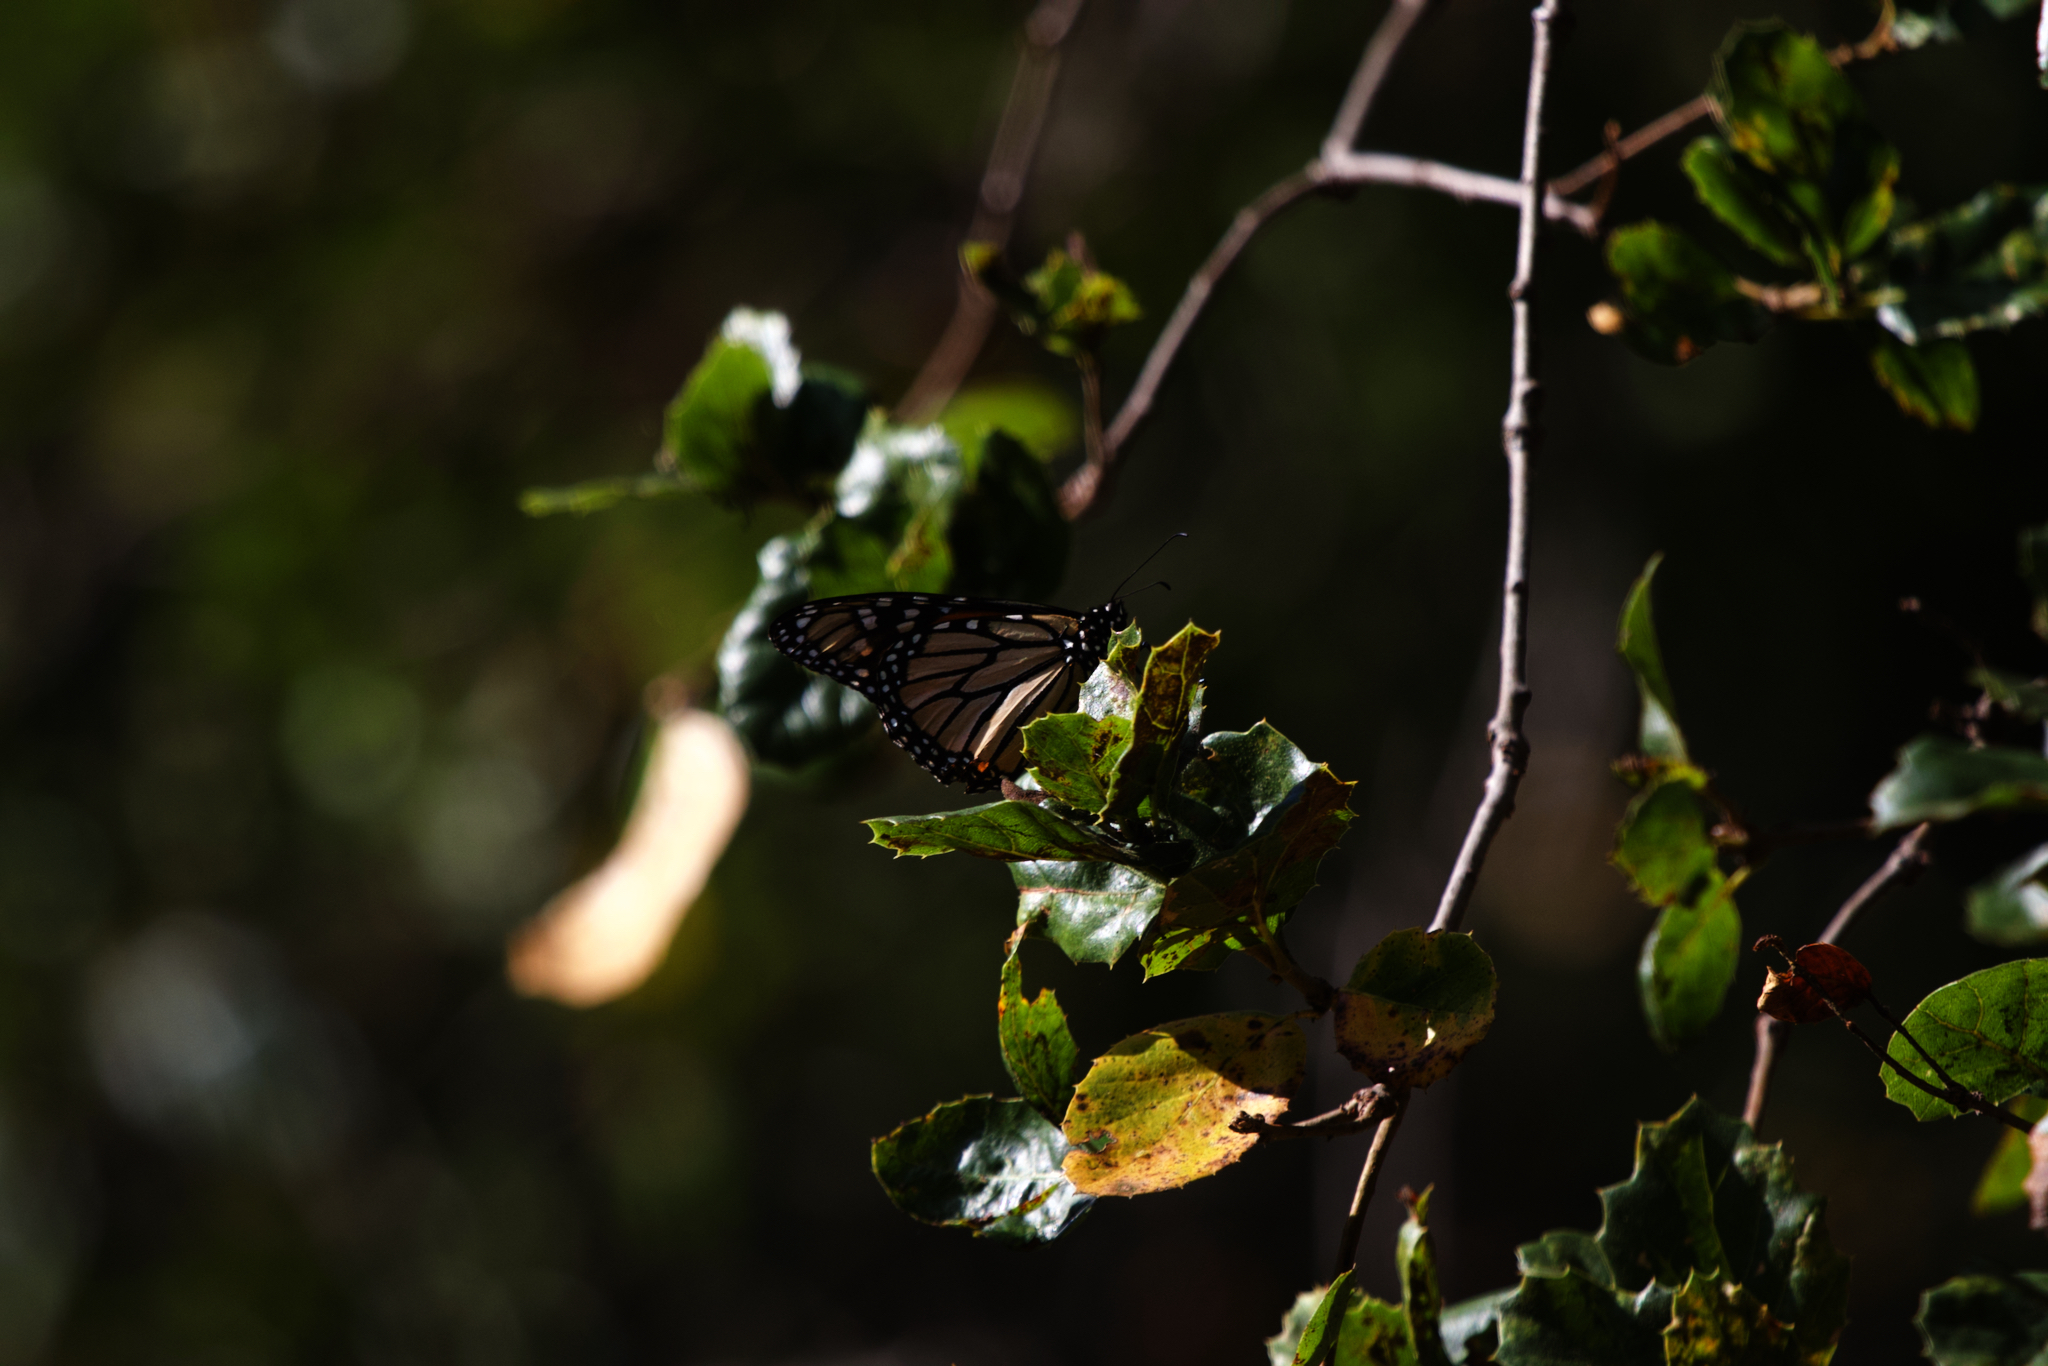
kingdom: Animalia
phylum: Arthropoda
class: Insecta
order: Lepidoptera
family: Nymphalidae
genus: Danaus
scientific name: Danaus plexippus
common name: Monarch
